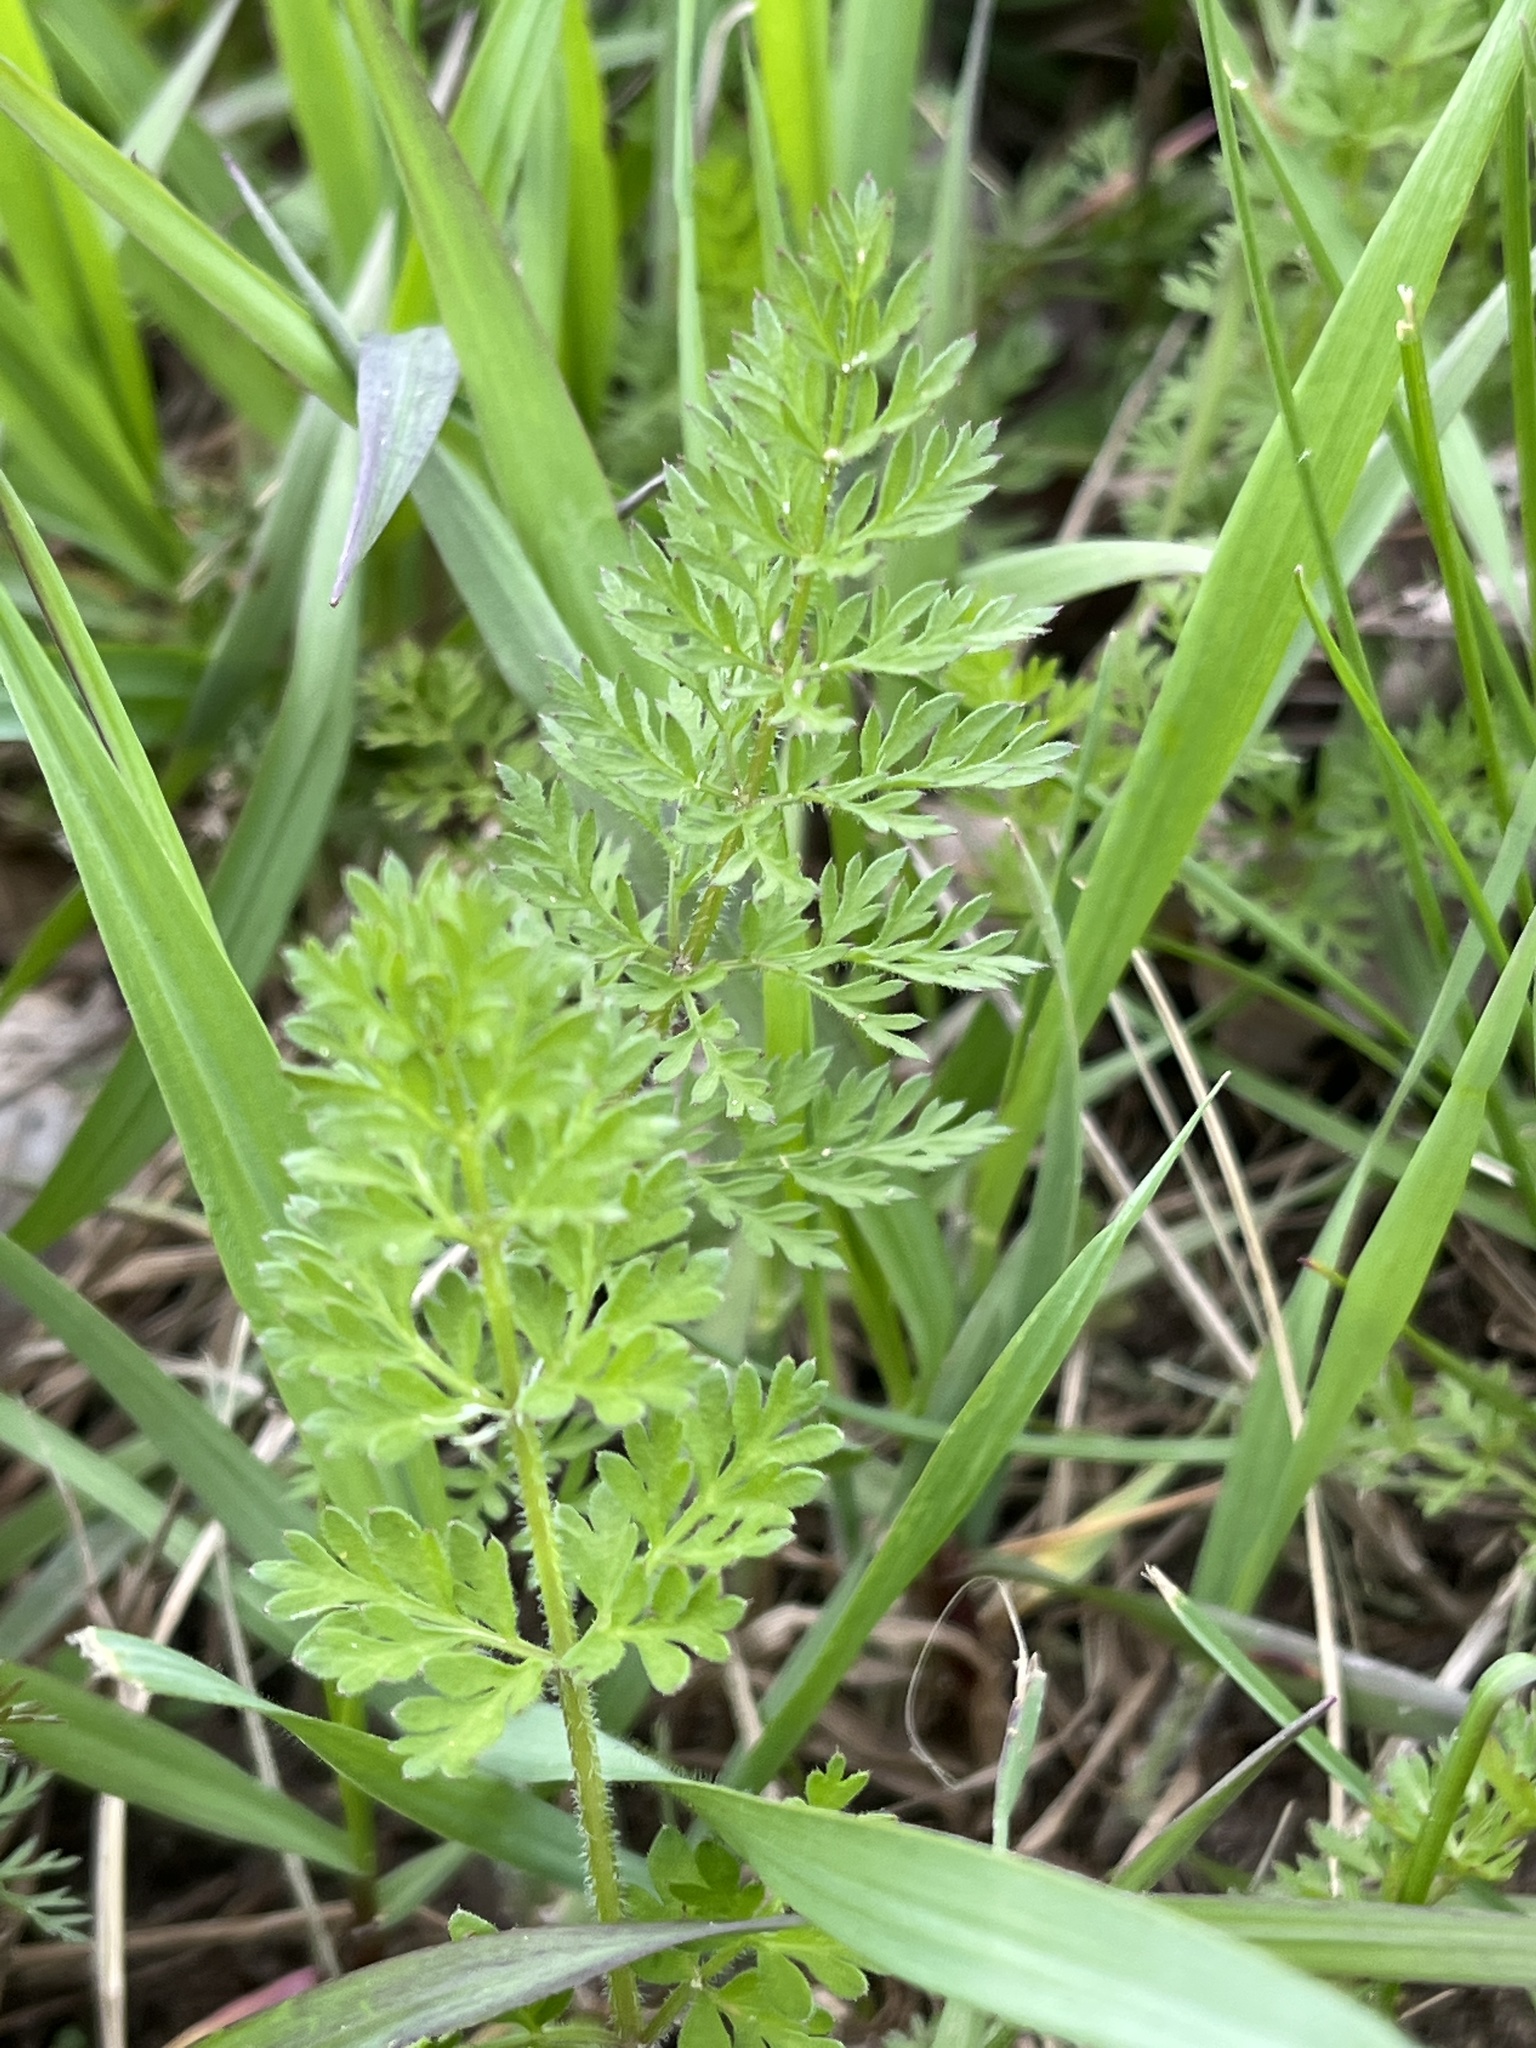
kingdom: Plantae
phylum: Tracheophyta
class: Magnoliopsida
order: Apiales
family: Apiaceae
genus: Daucus
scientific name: Daucus carota
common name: Wild carrot
